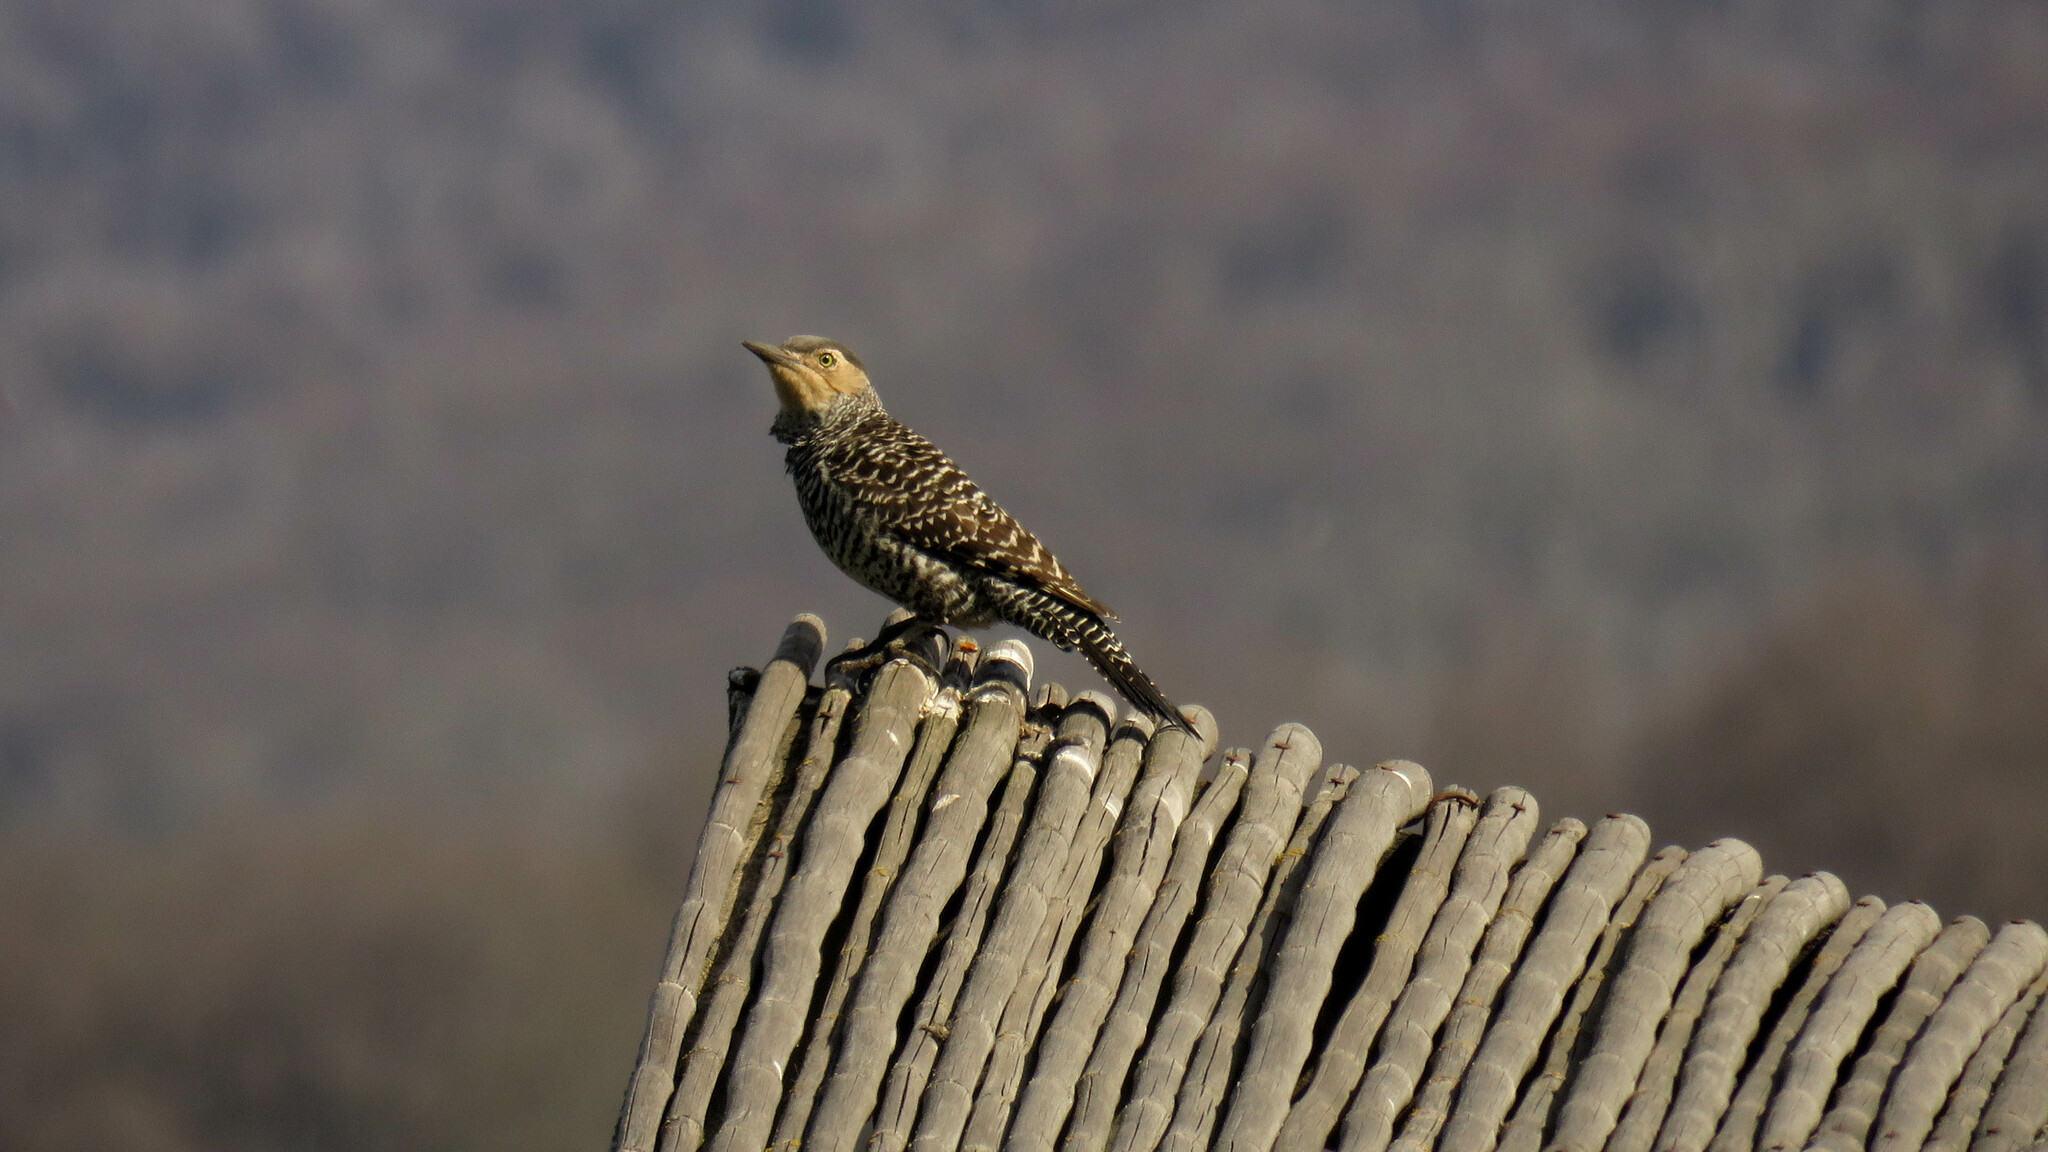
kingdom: Animalia
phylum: Chordata
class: Aves
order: Piciformes
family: Picidae
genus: Colaptes
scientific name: Colaptes pitius
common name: Chilean flicker
